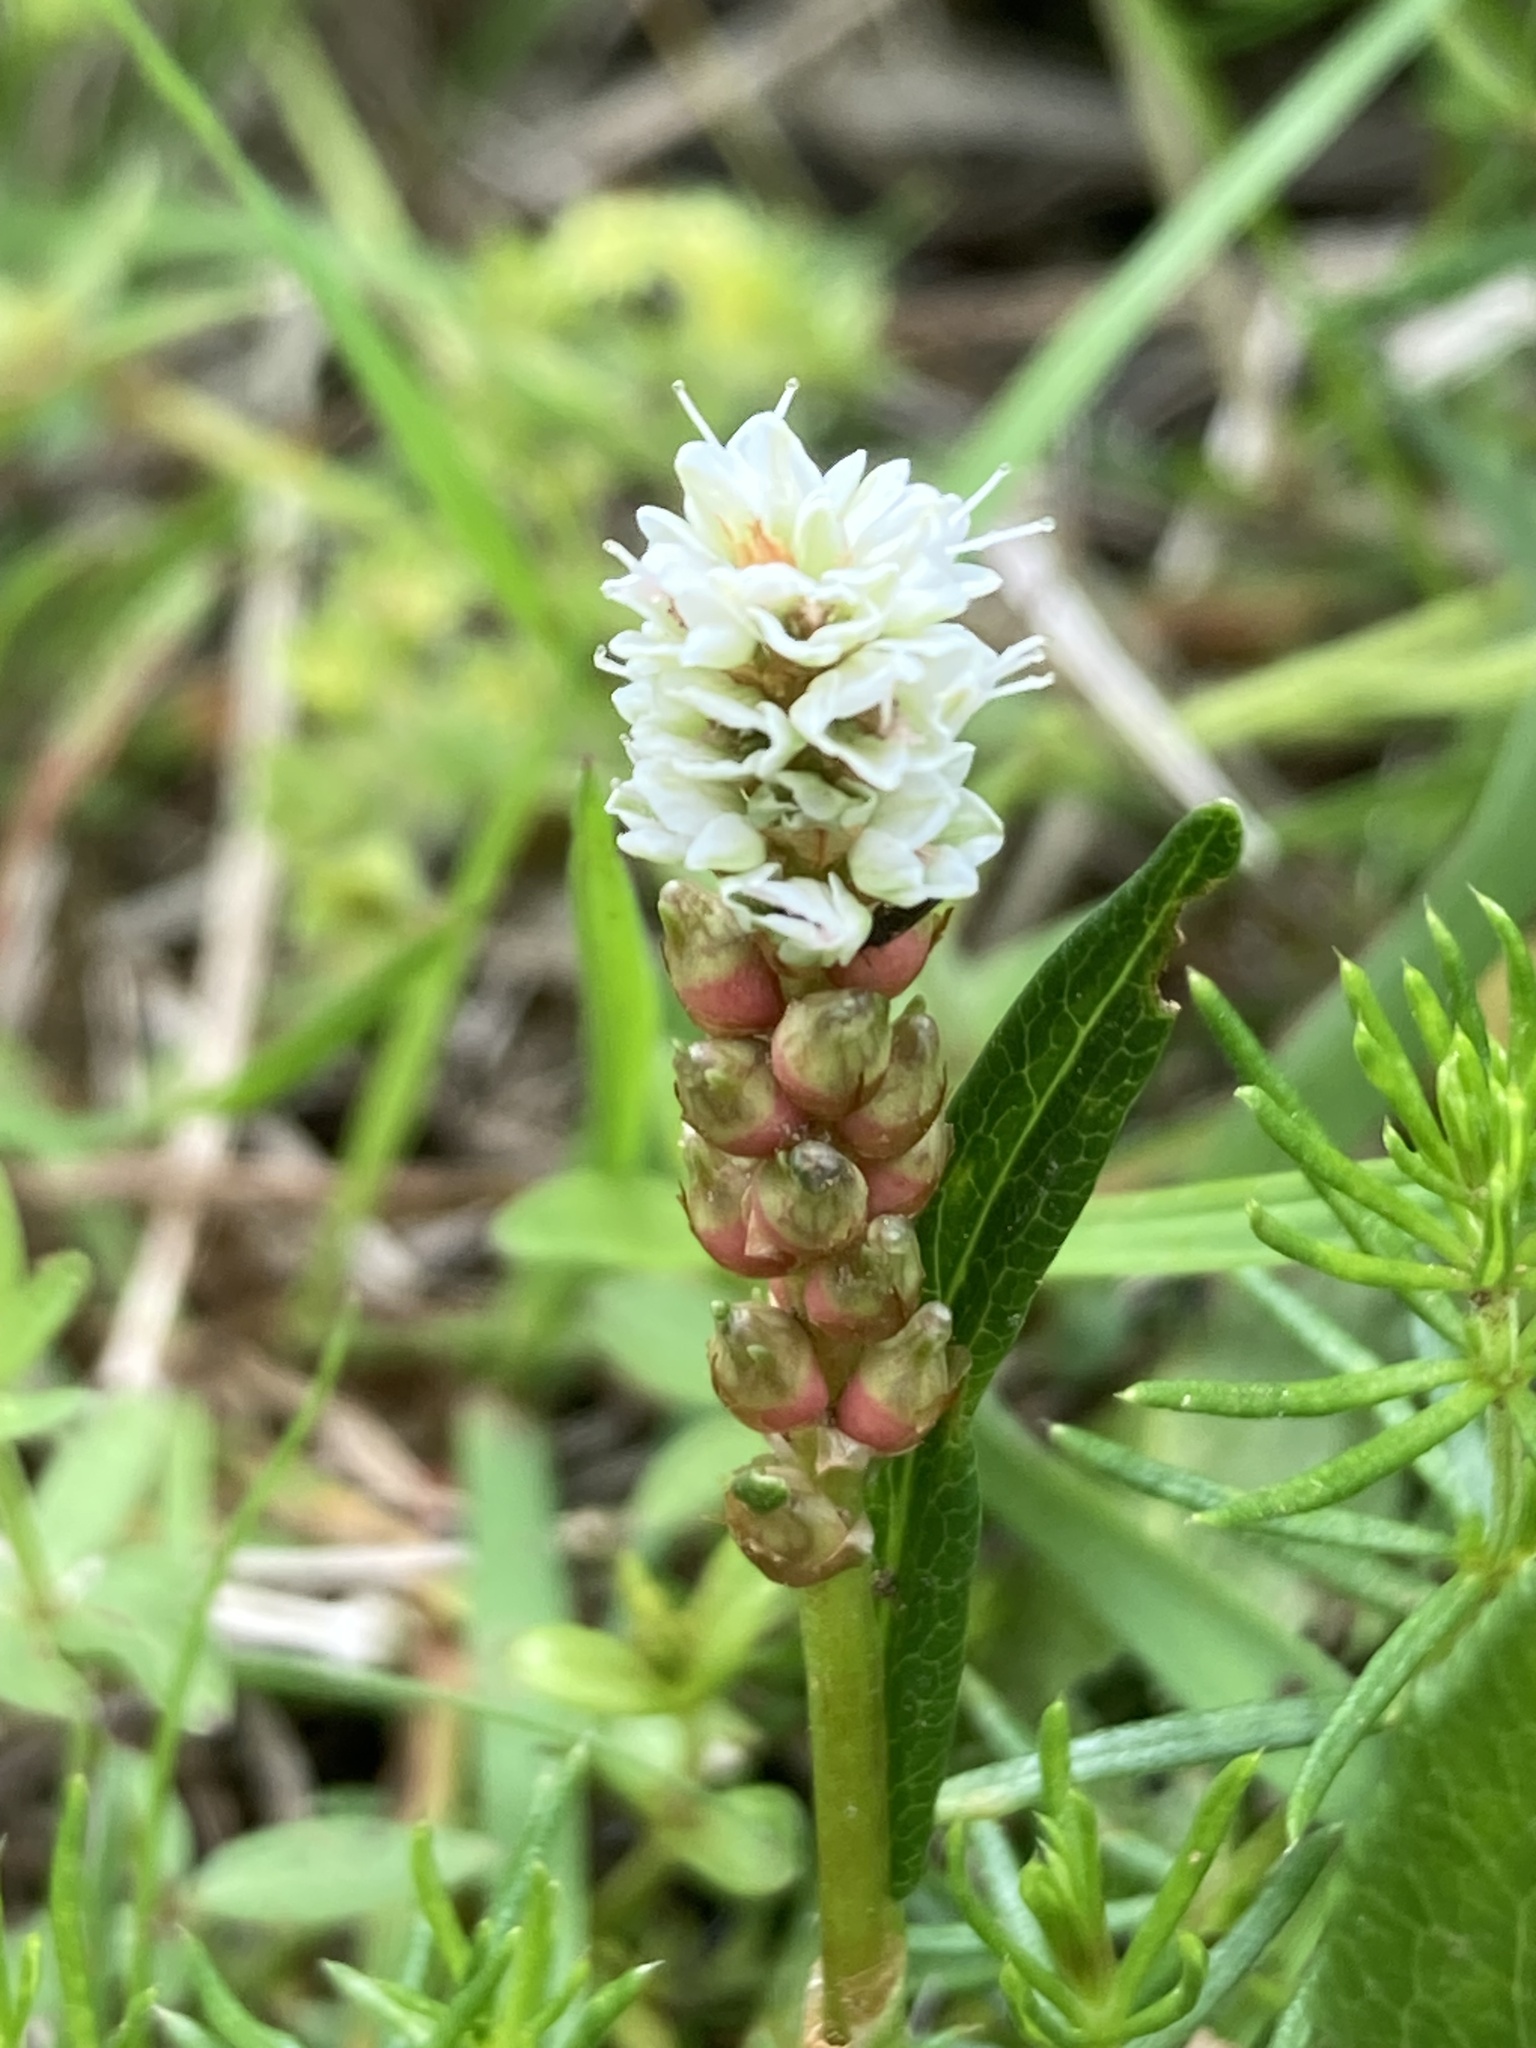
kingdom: Plantae
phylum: Tracheophyta
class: Magnoliopsida
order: Caryophyllales
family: Polygonaceae
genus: Bistorta
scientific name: Bistorta vivipara
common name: Alpine bistort
